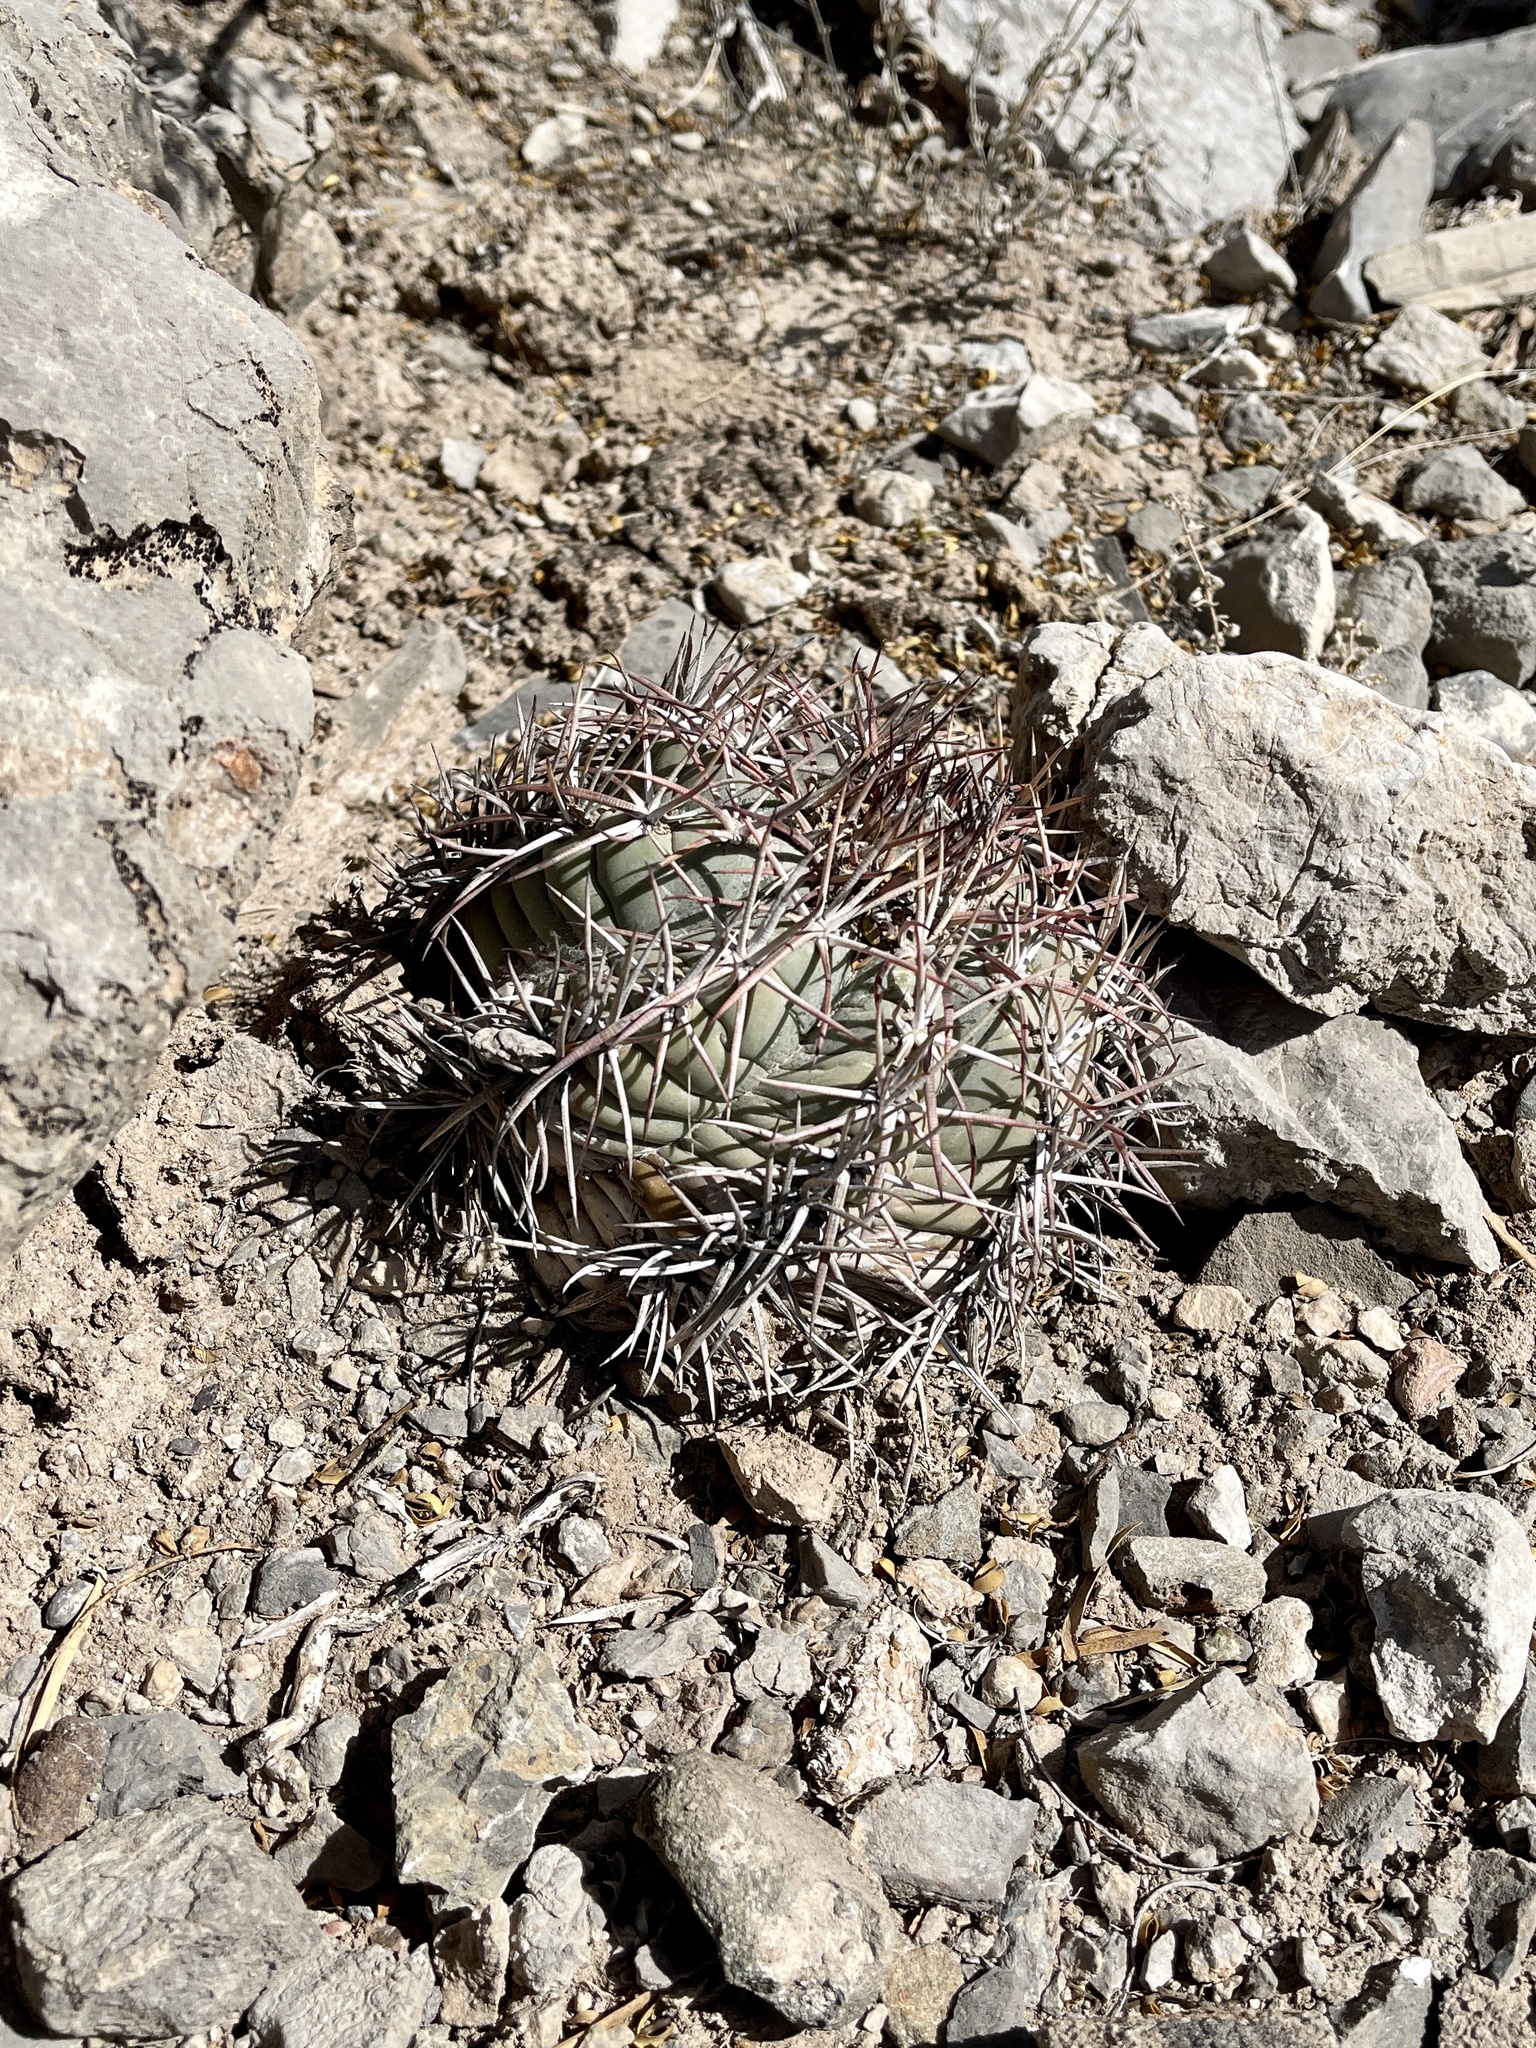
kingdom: Plantae
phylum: Tracheophyta
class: Magnoliopsida
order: Caryophyllales
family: Cactaceae
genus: Echinocactus
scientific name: Echinocactus horizonthalonius
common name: Devilshead
